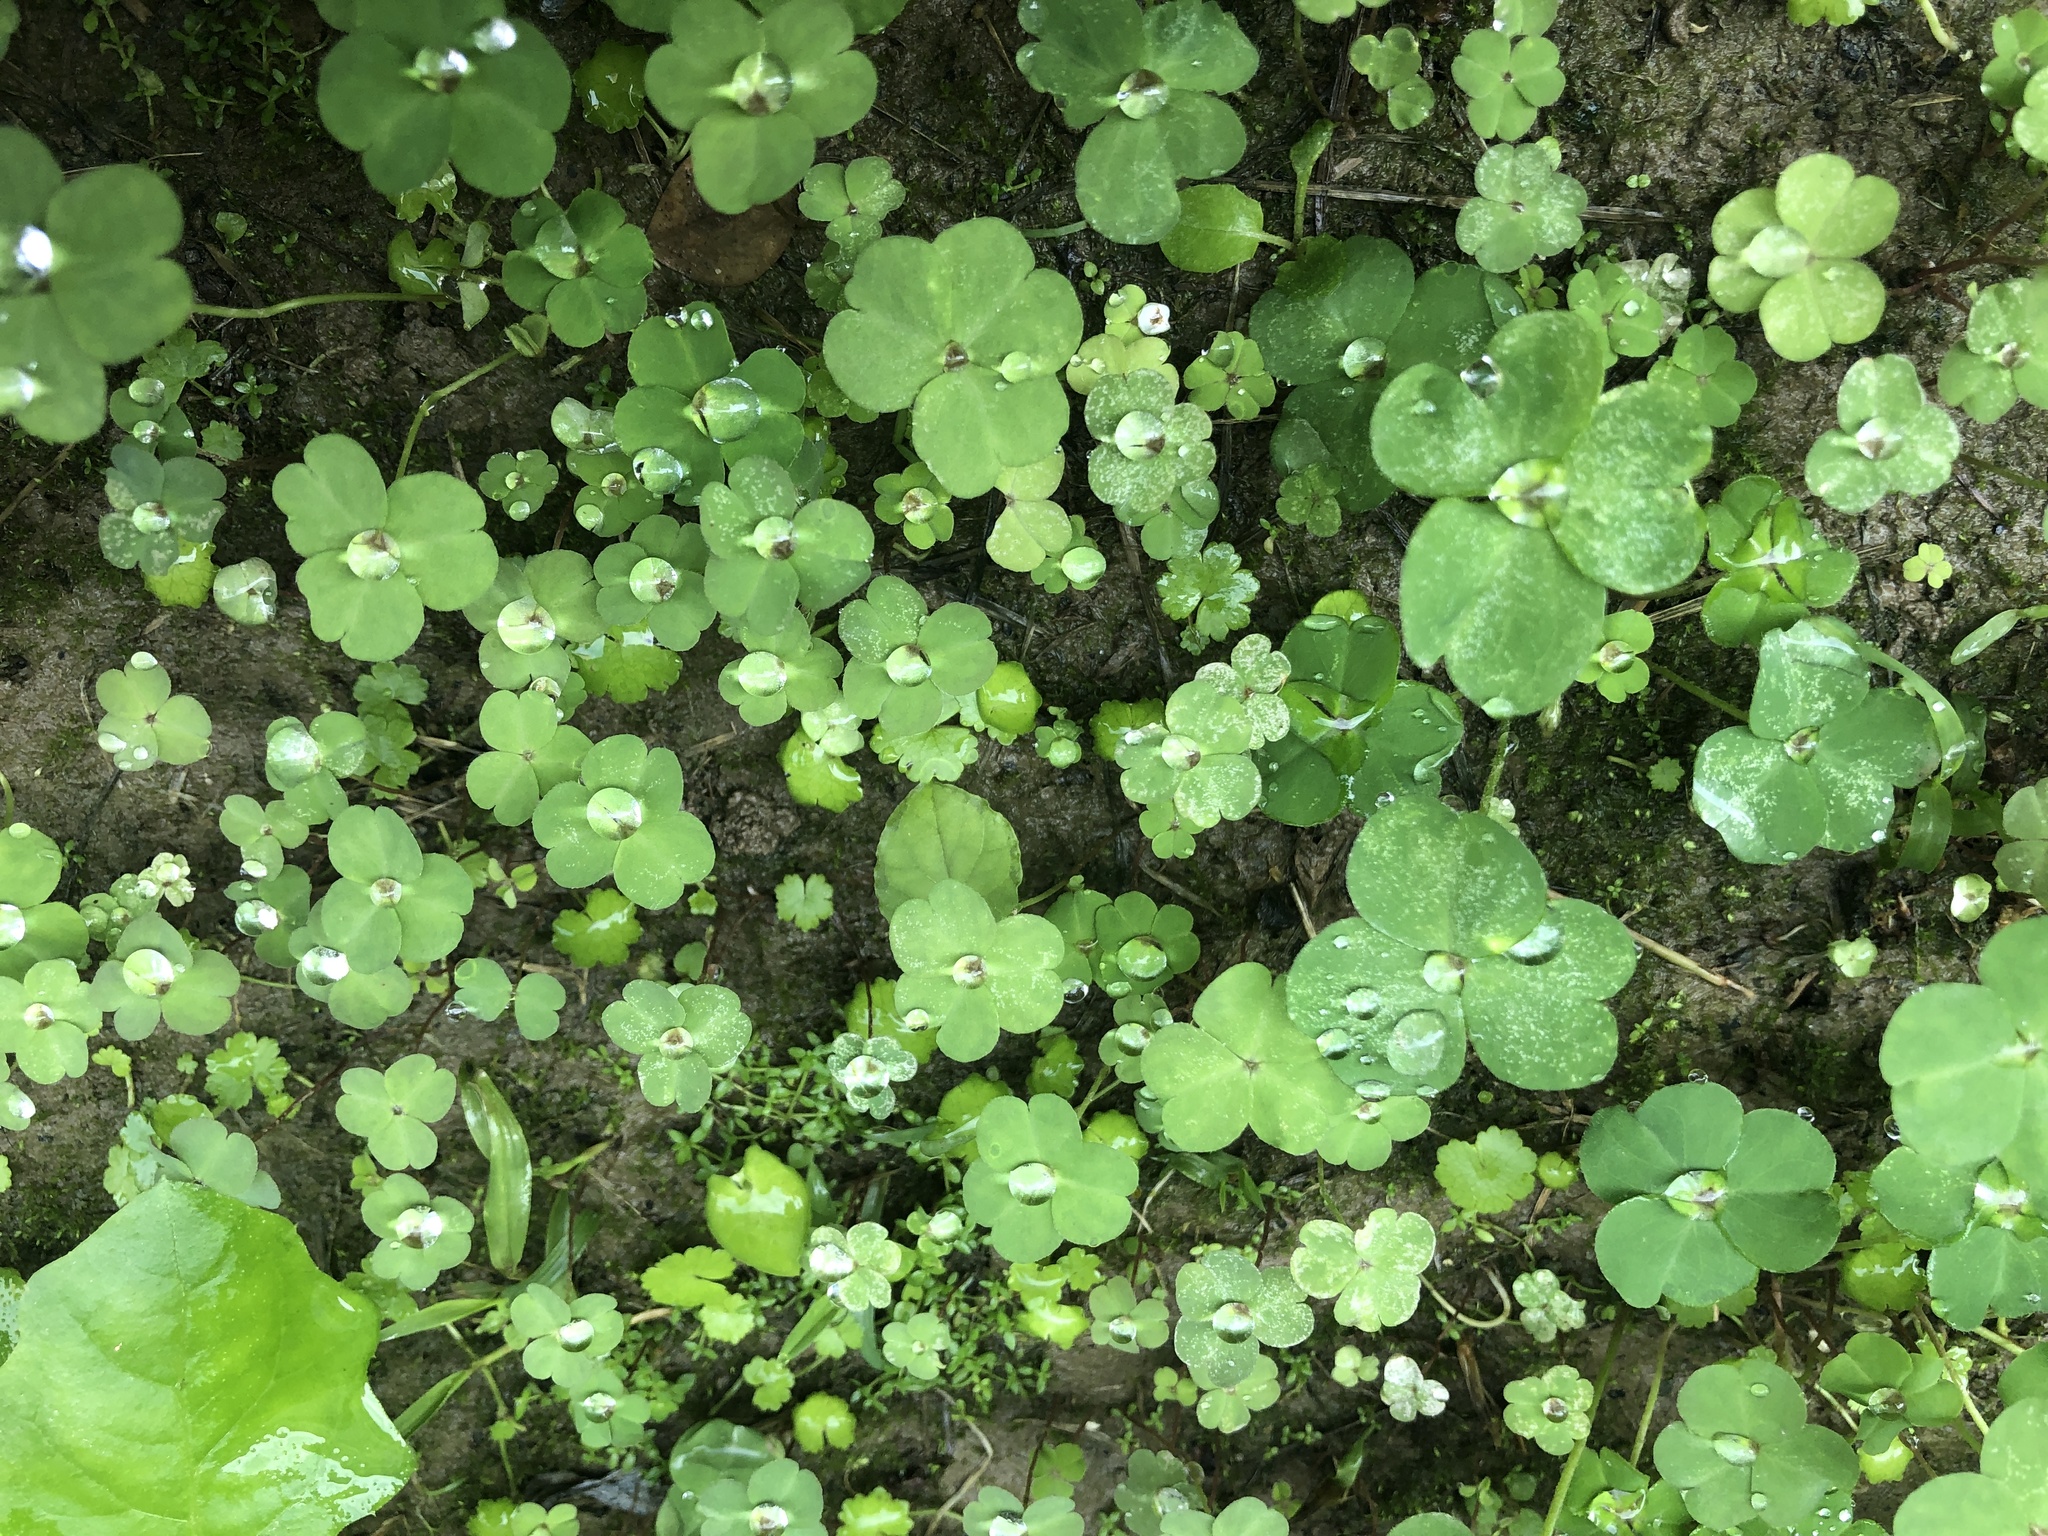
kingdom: Plantae
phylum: Tracheophyta
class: Magnoliopsida
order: Oxalidales
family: Oxalidaceae
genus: Oxalis
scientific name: Oxalis corniculata
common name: Procumbent yellow-sorrel
